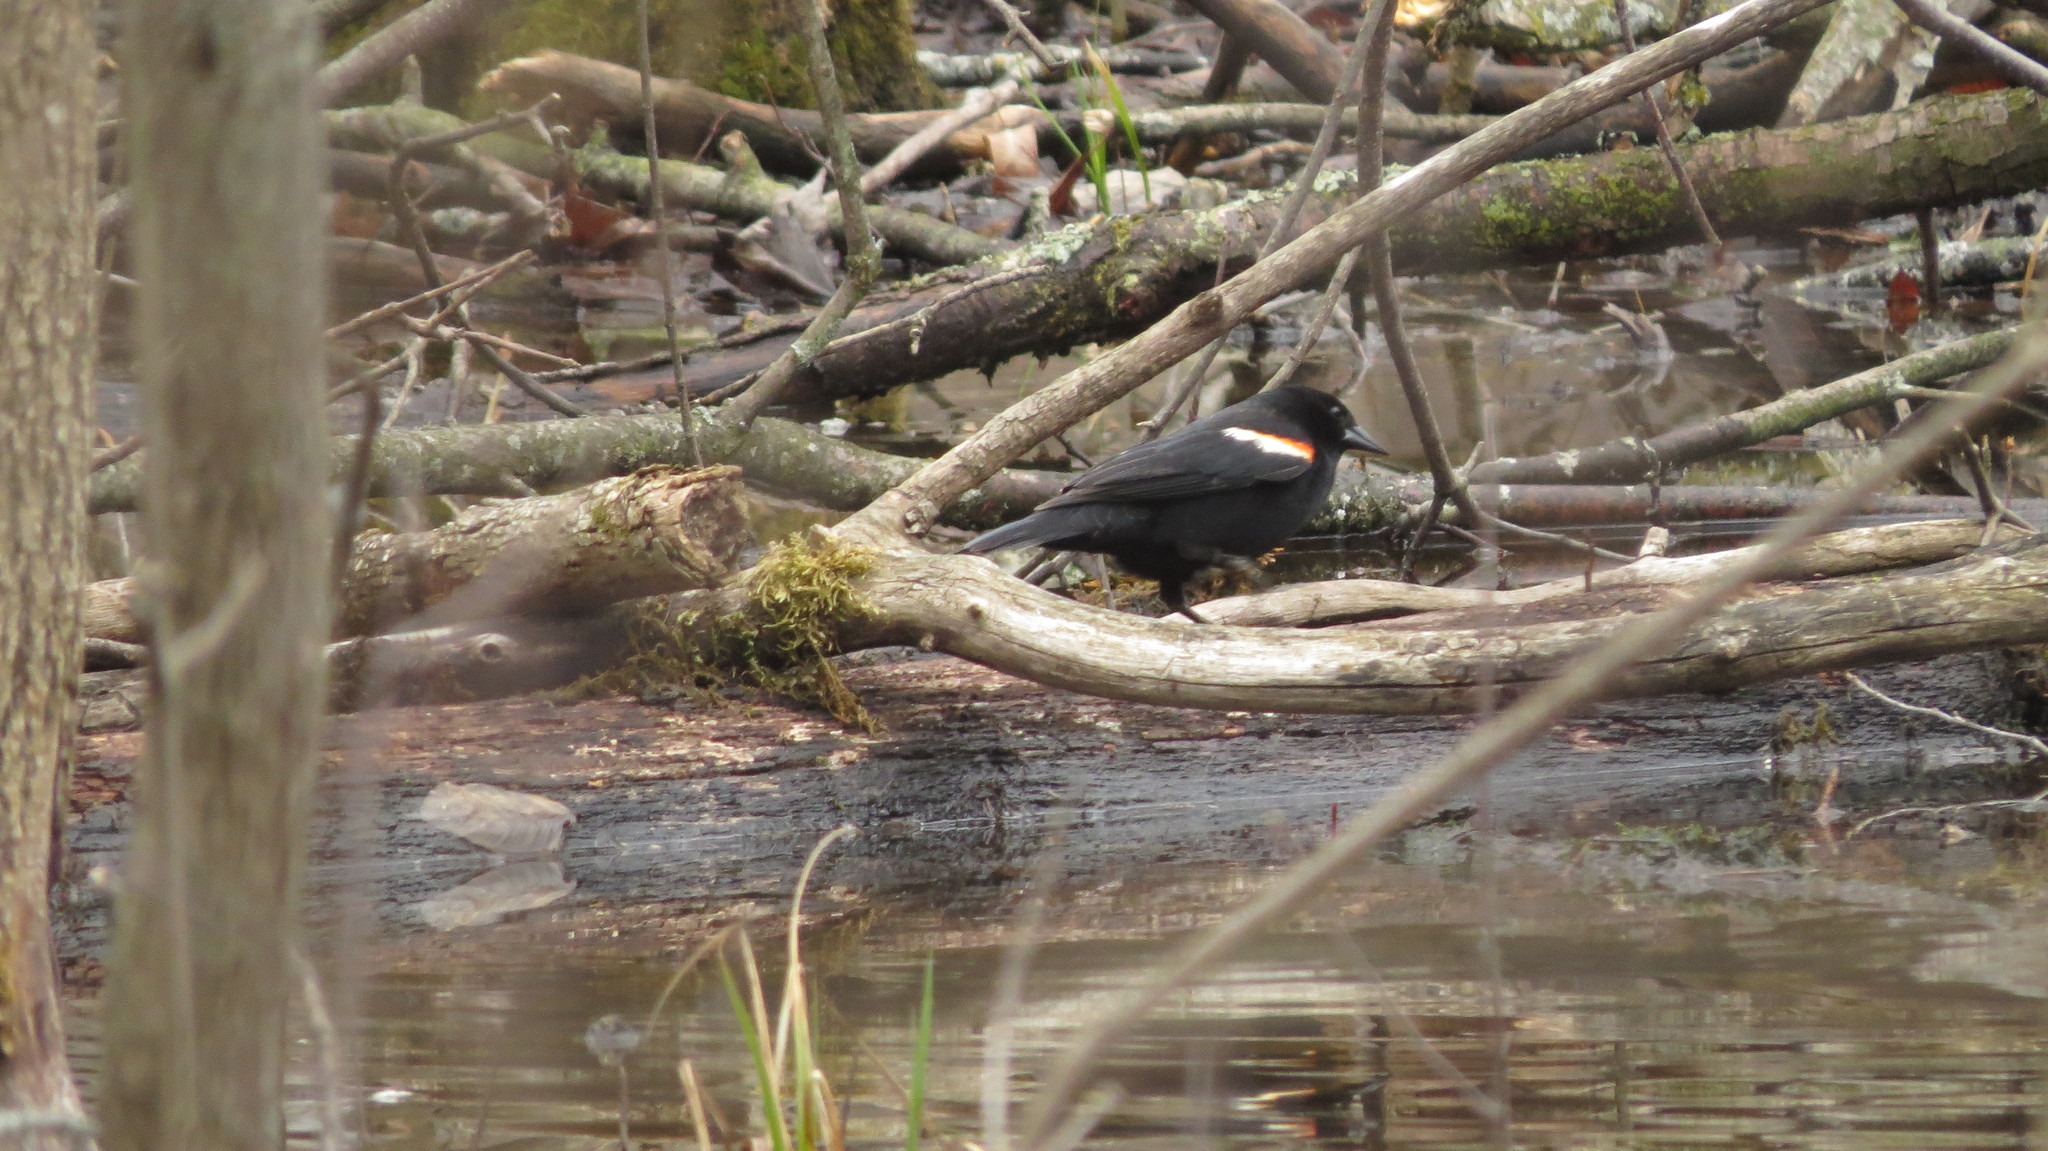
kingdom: Animalia
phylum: Chordata
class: Aves
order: Passeriformes
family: Icteridae
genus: Agelaius
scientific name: Agelaius phoeniceus
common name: Red-winged blackbird
